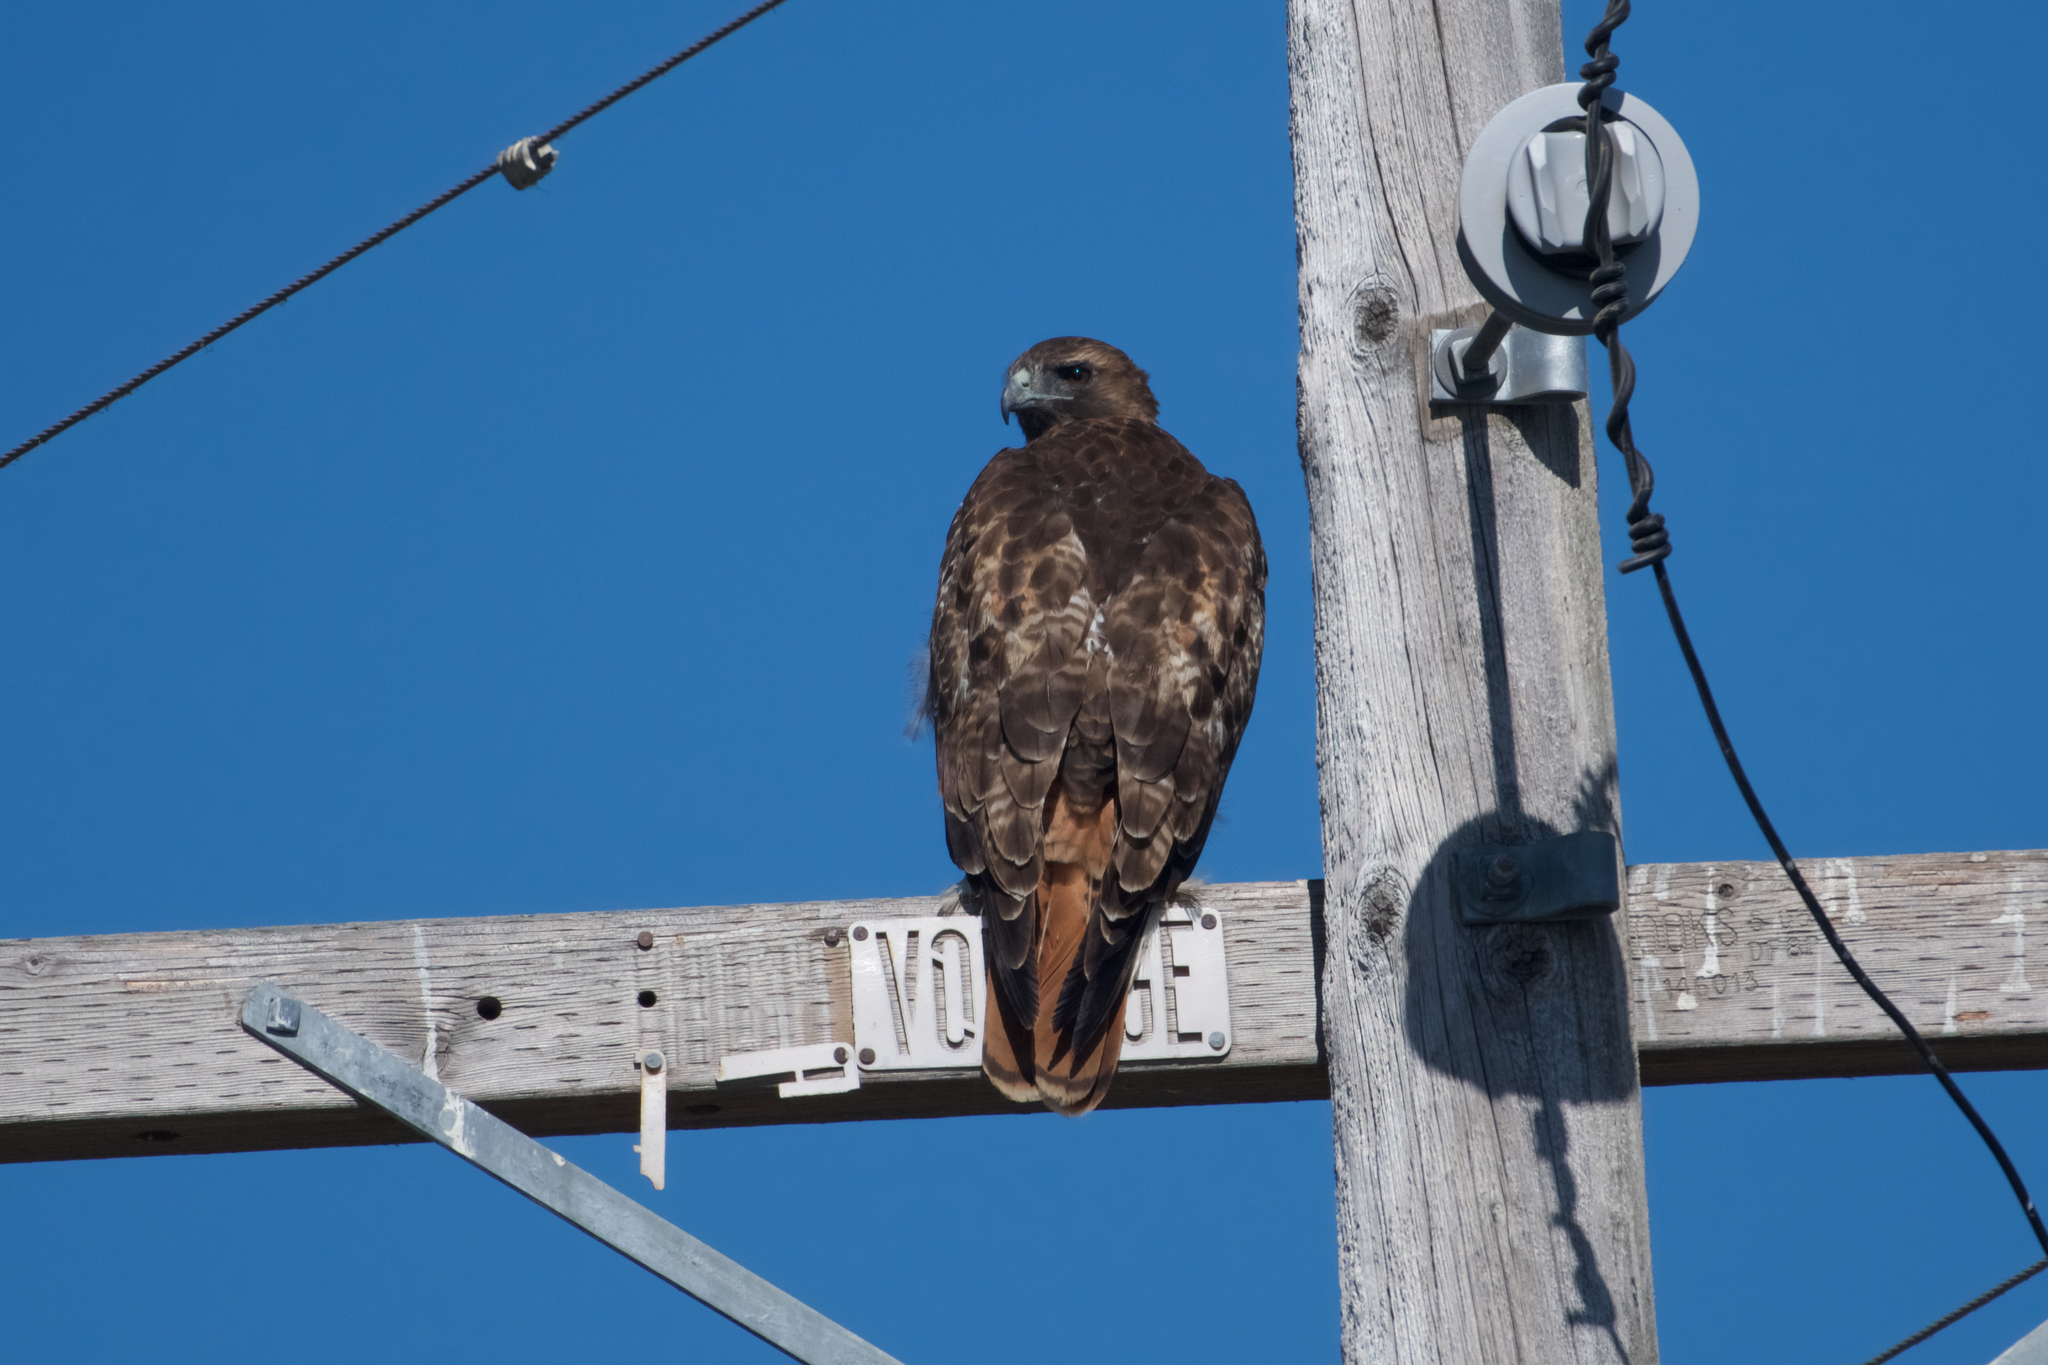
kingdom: Animalia
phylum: Chordata
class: Aves
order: Accipitriformes
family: Accipitridae
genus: Buteo
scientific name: Buteo jamaicensis
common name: Red-tailed hawk
